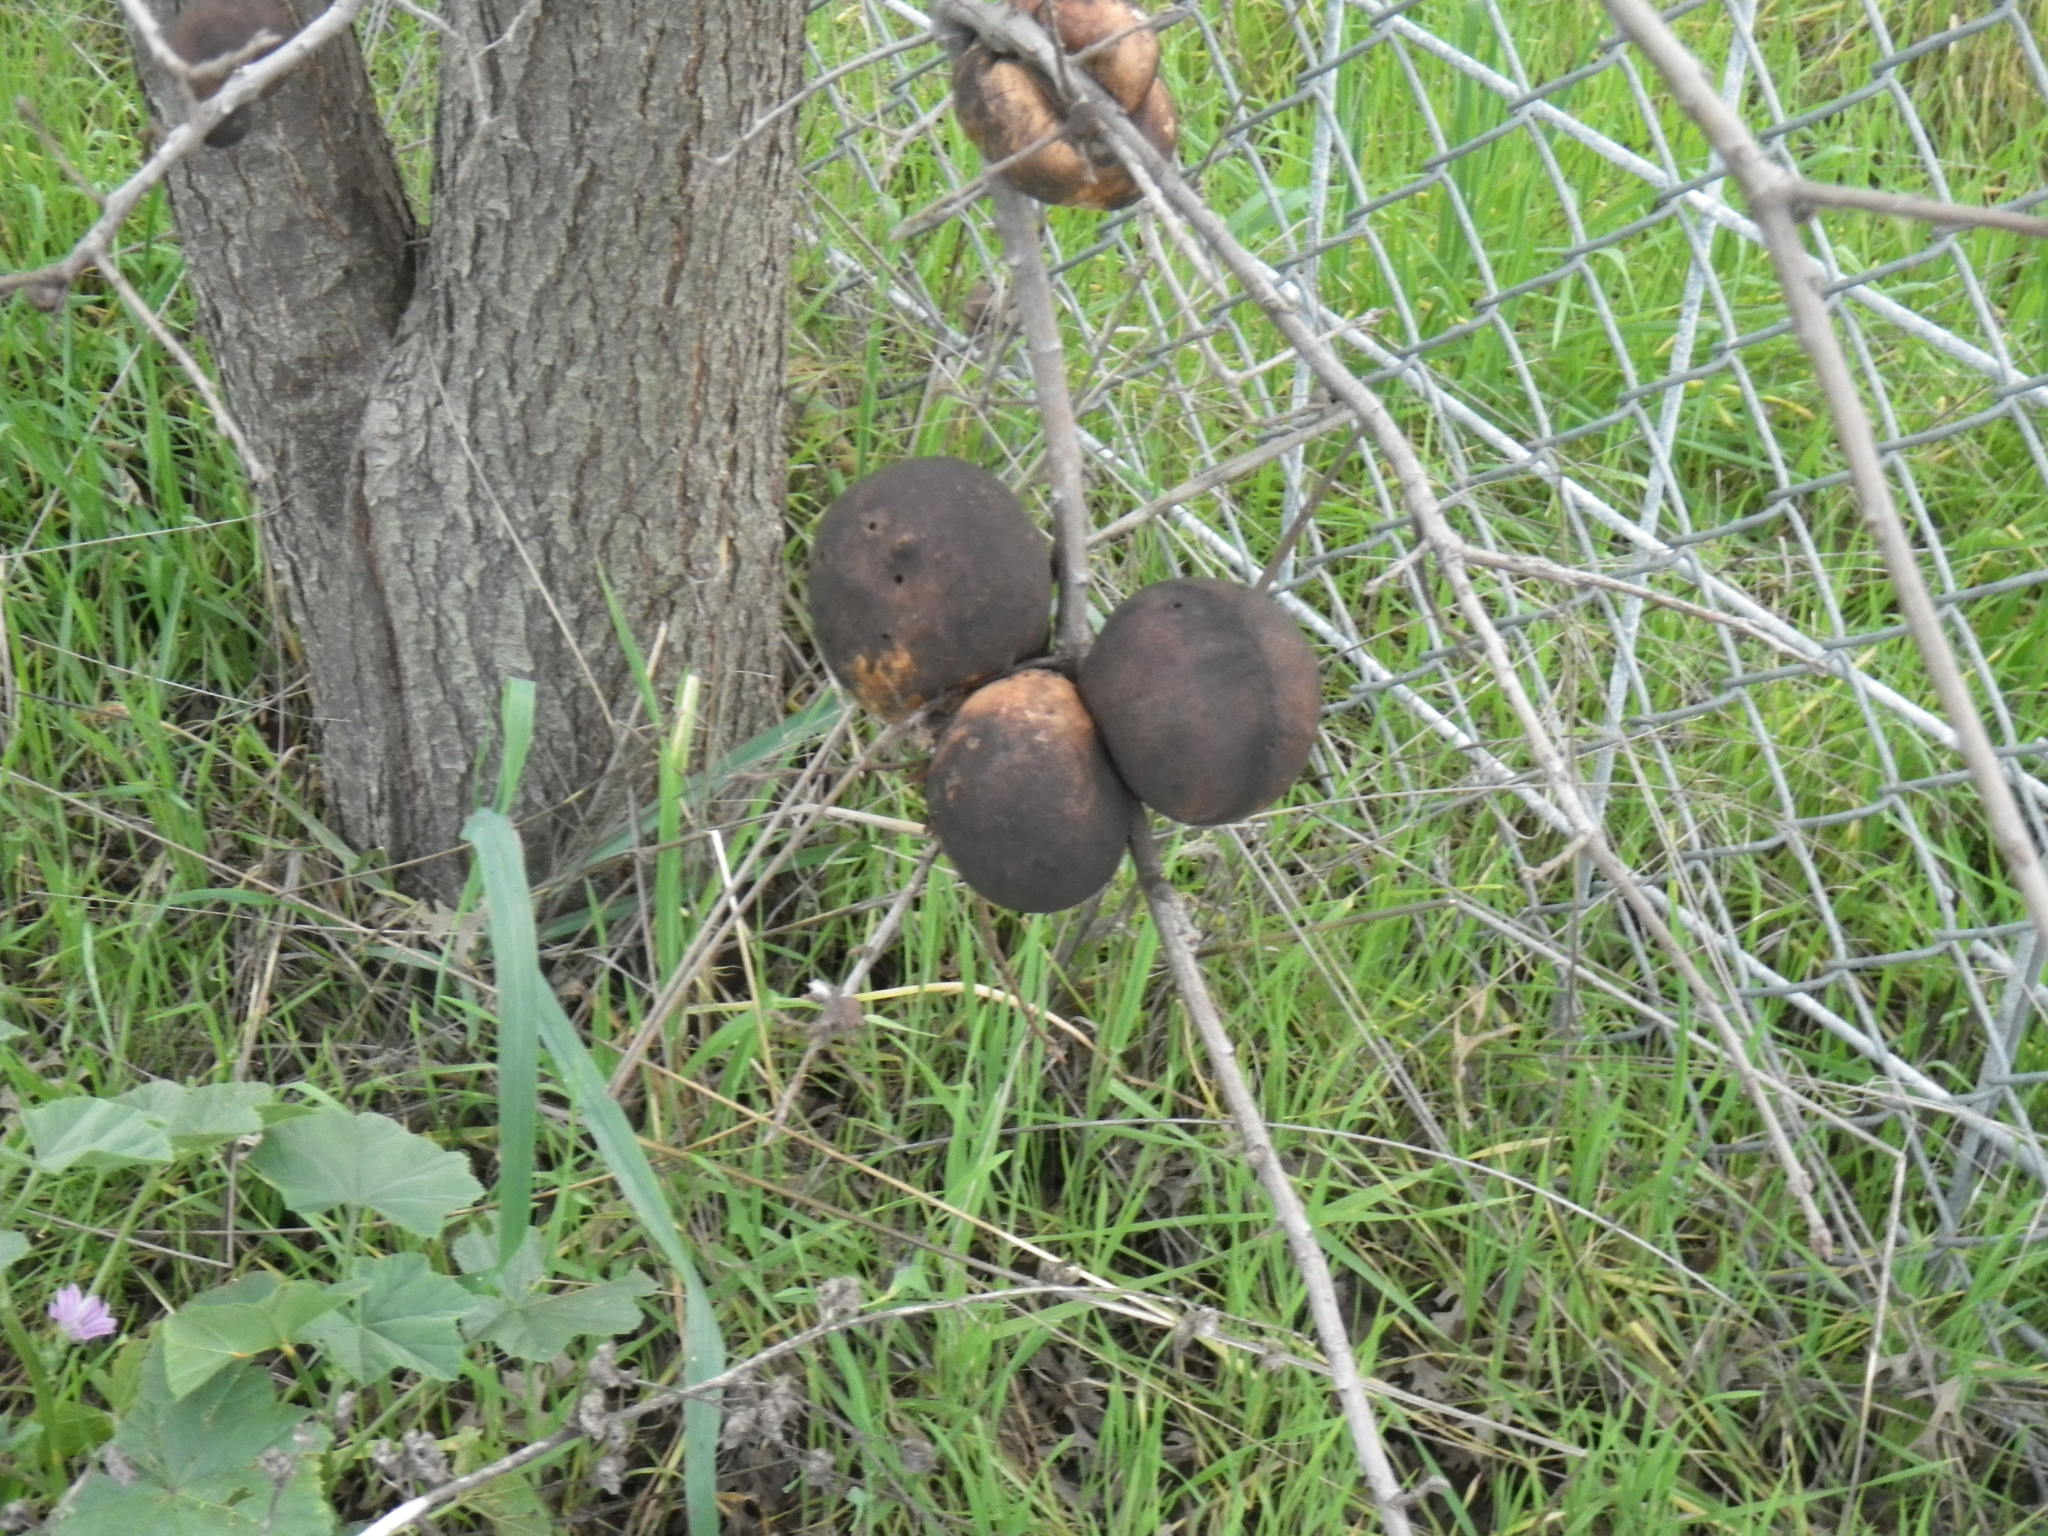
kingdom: Animalia
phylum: Arthropoda
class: Insecta
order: Hymenoptera
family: Cynipidae
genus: Andricus
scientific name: Andricus quercuscalifornicus
